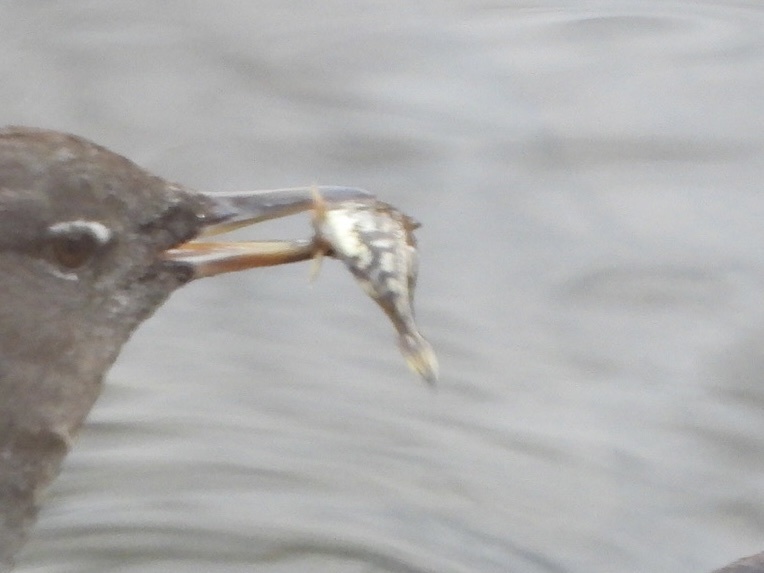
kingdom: Animalia
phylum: Chordata
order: Gasterosteiformes
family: Gasterosteidae
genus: Gasterosteus
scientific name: Gasterosteus aculeatus
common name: Three-spined stickleback
